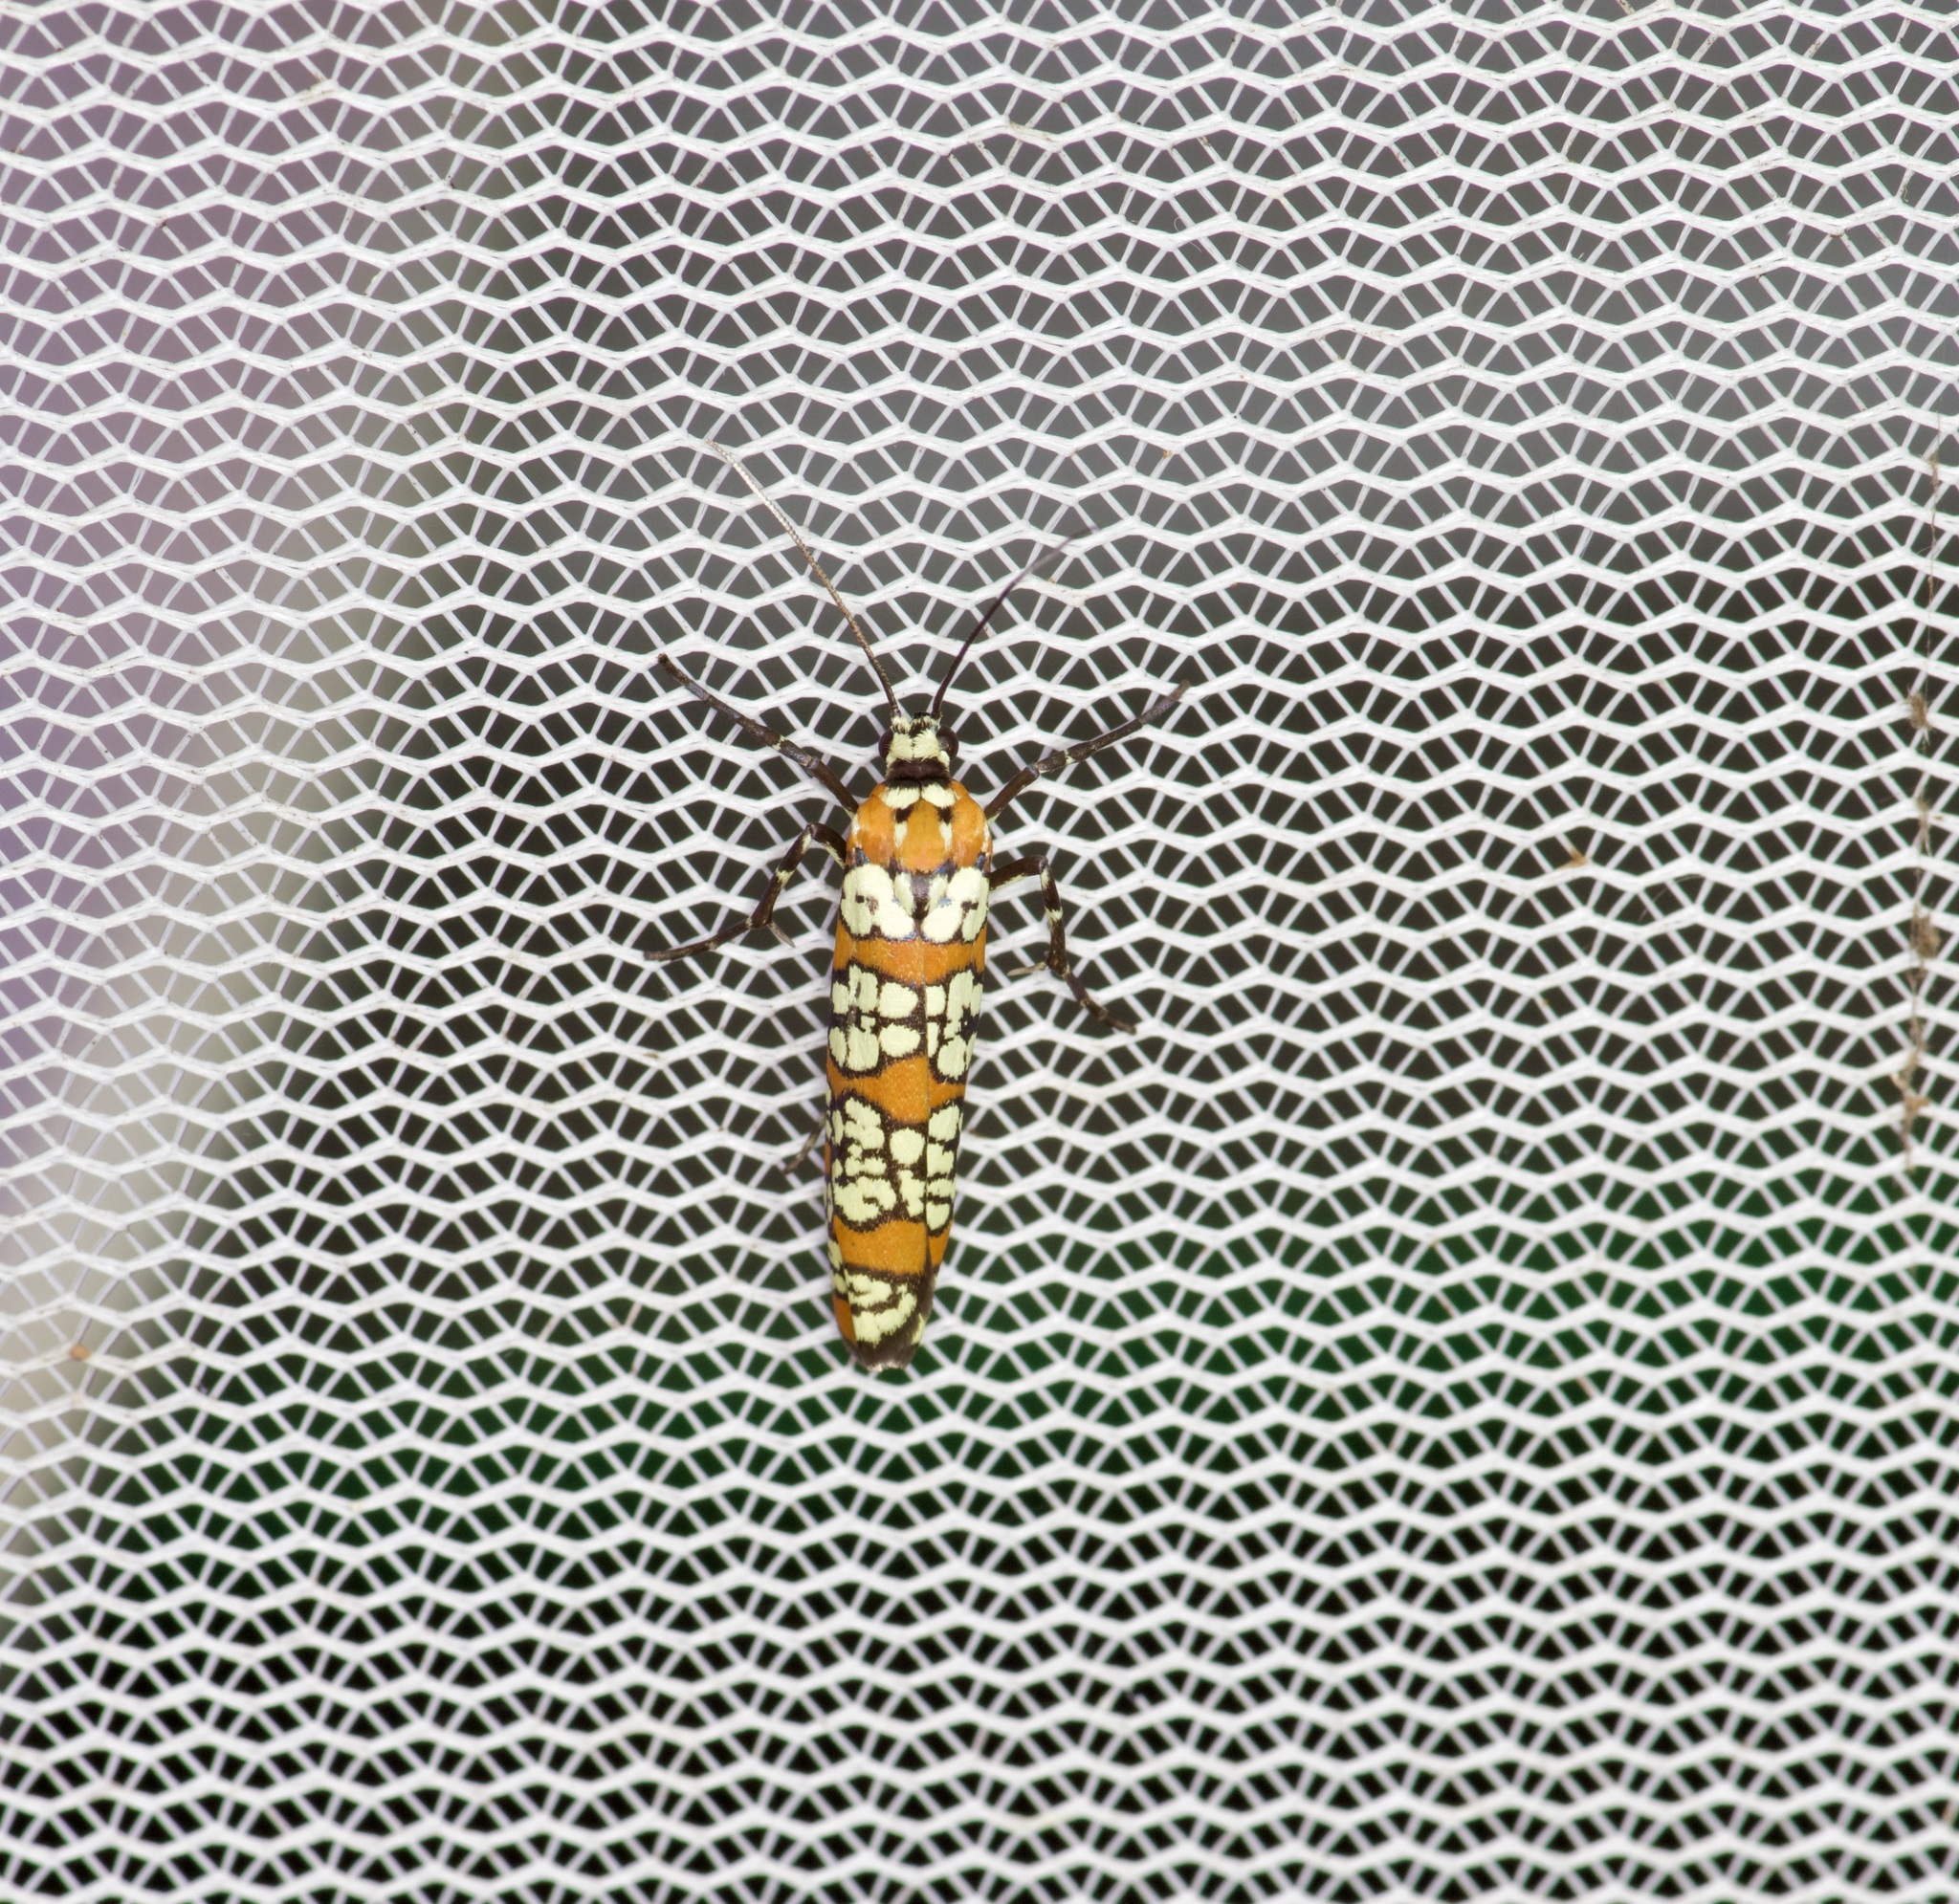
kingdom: Animalia
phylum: Arthropoda
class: Insecta
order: Lepidoptera
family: Attevidae
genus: Atteva
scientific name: Atteva punctella
